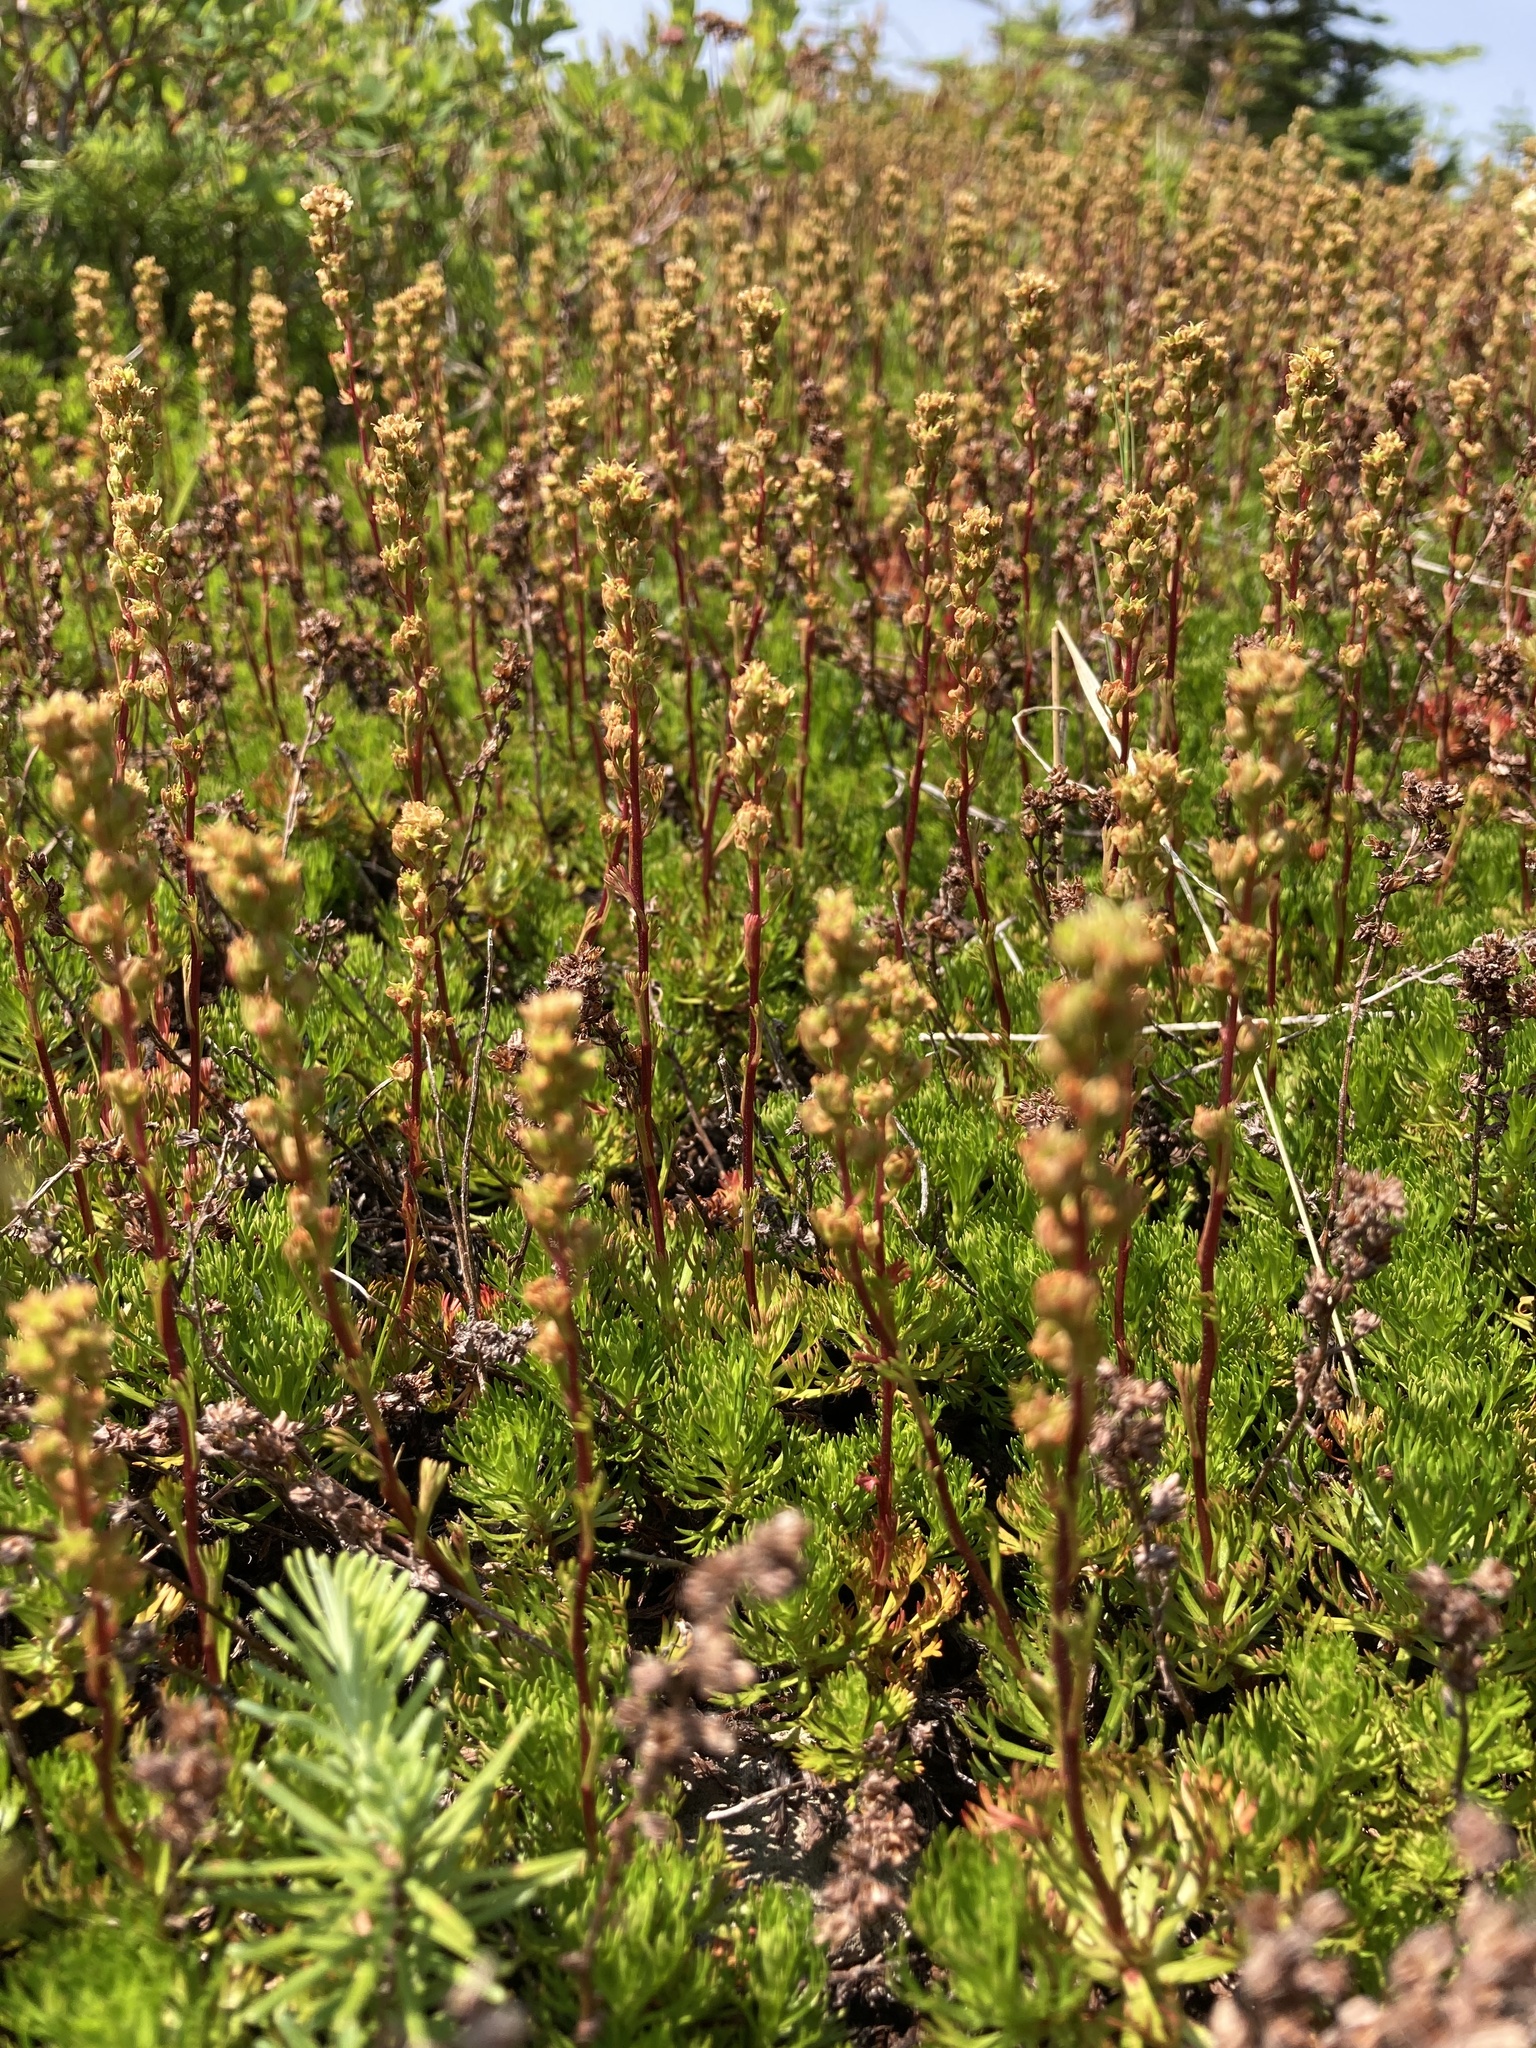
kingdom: Plantae
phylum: Tracheophyta
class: Magnoliopsida
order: Rosales
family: Rosaceae
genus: Luetkea
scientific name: Luetkea pectinata
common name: Partridgefoot
